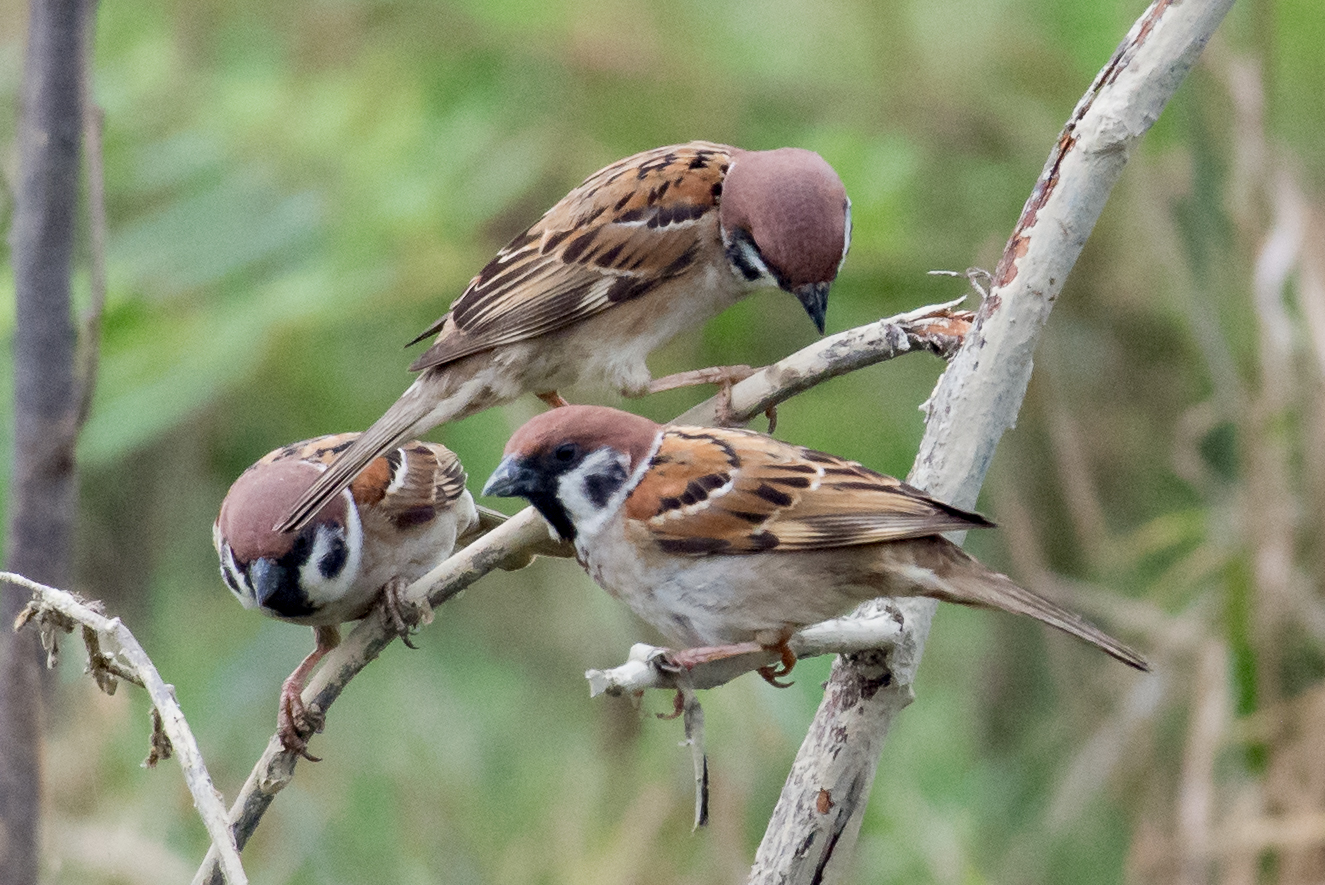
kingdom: Animalia
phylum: Chordata
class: Aves
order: Passeriformes
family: Passeridae
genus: Passer
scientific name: Passer montanus
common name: Eurasian tree sparrow
